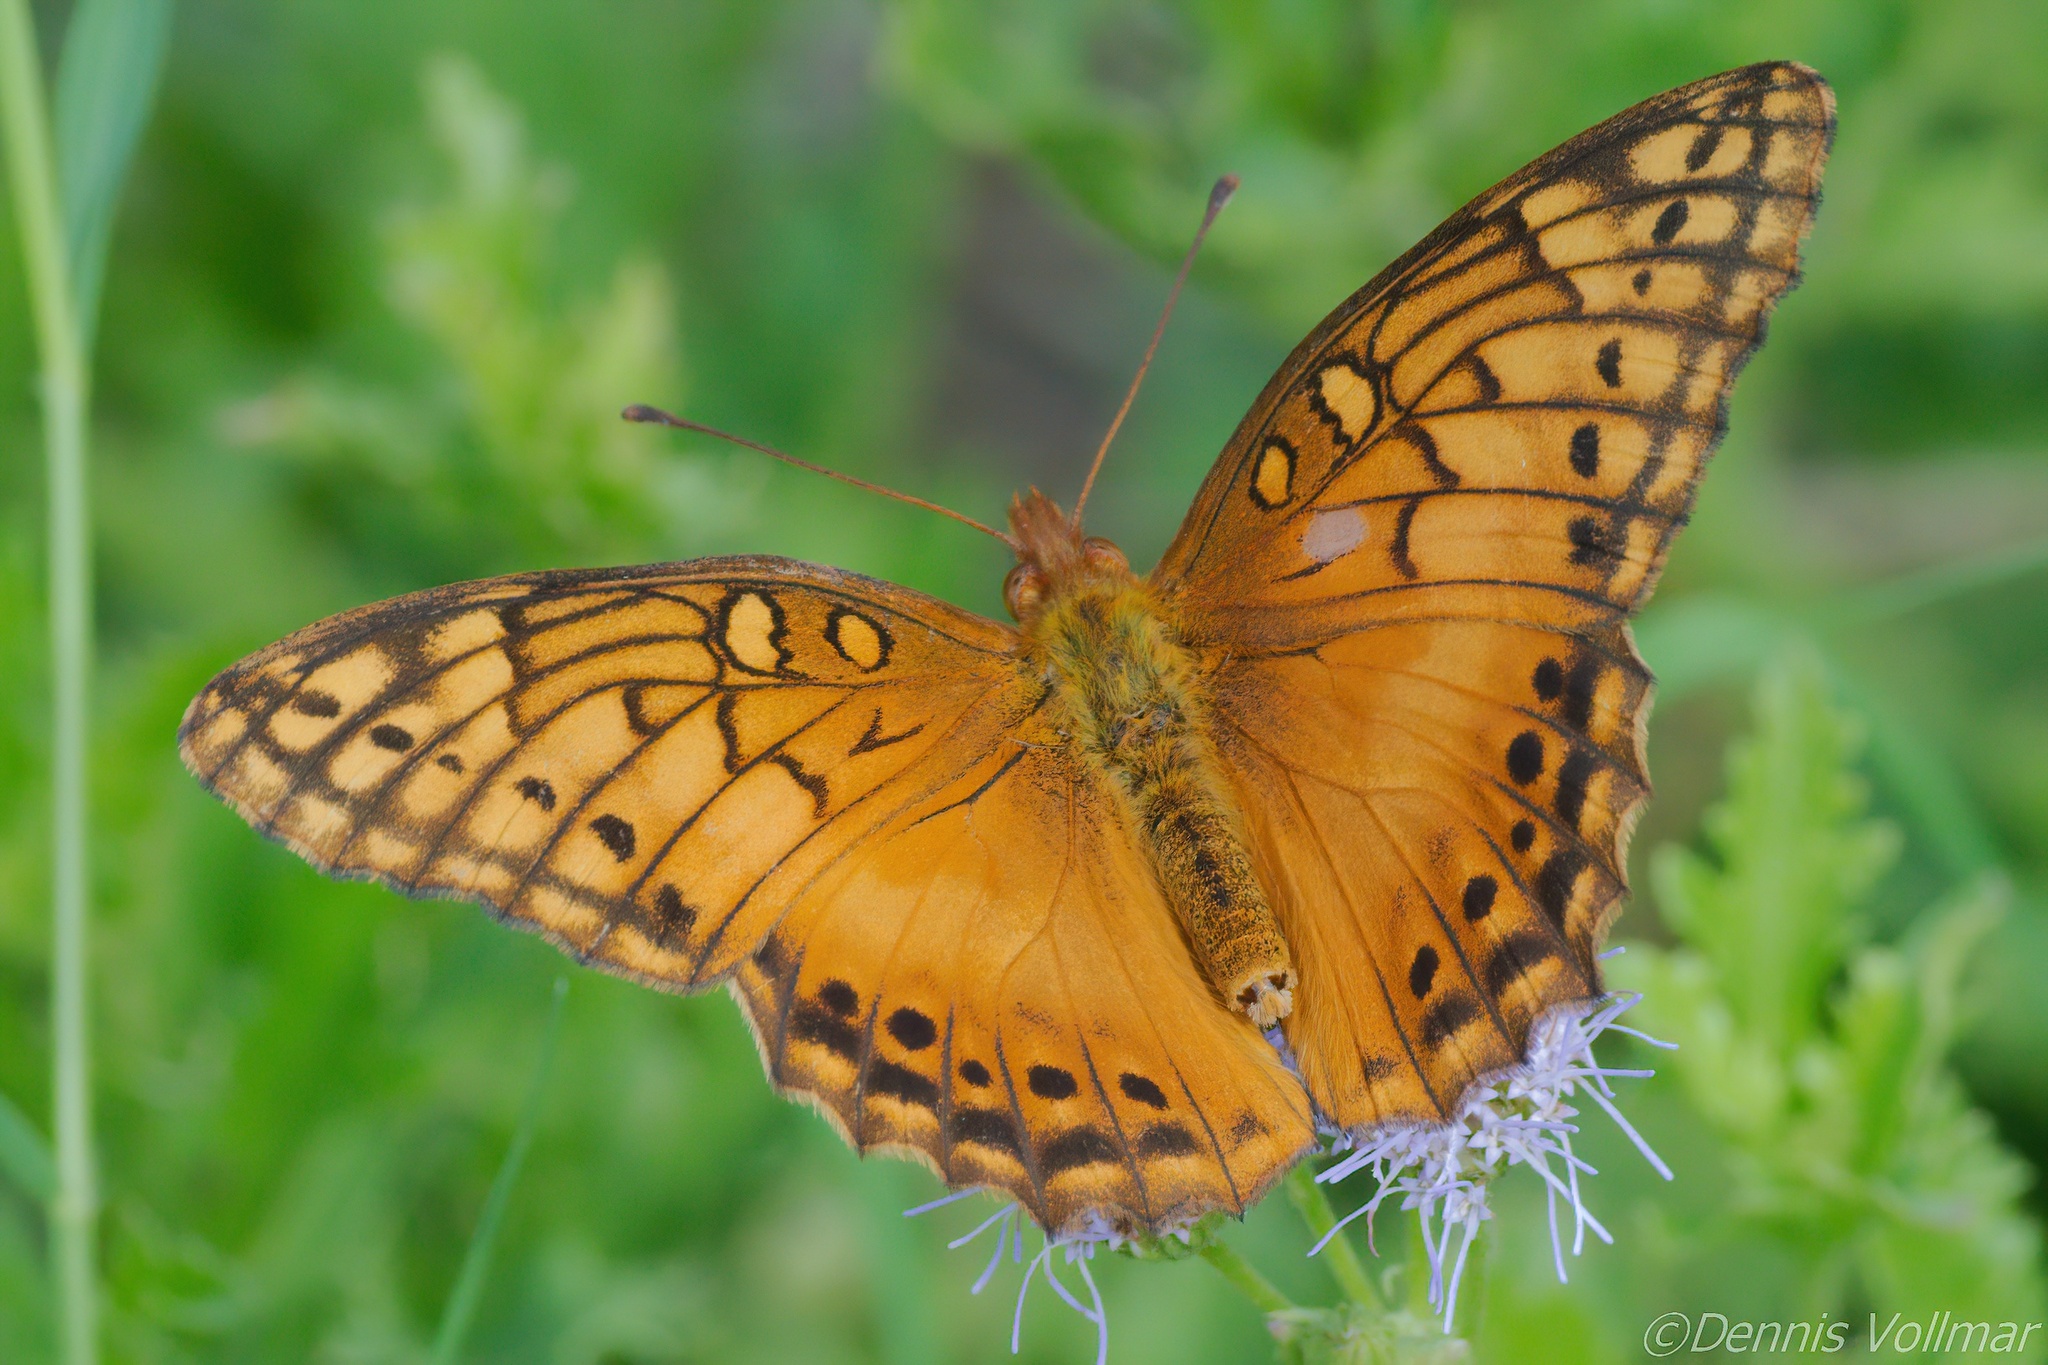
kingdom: Animalia
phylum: Arthropoda
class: Insecta
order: Lepidoptera
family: Nymphalidae
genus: Euptoieta
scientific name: Euptoieta hegesia
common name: Mexican fritillary
